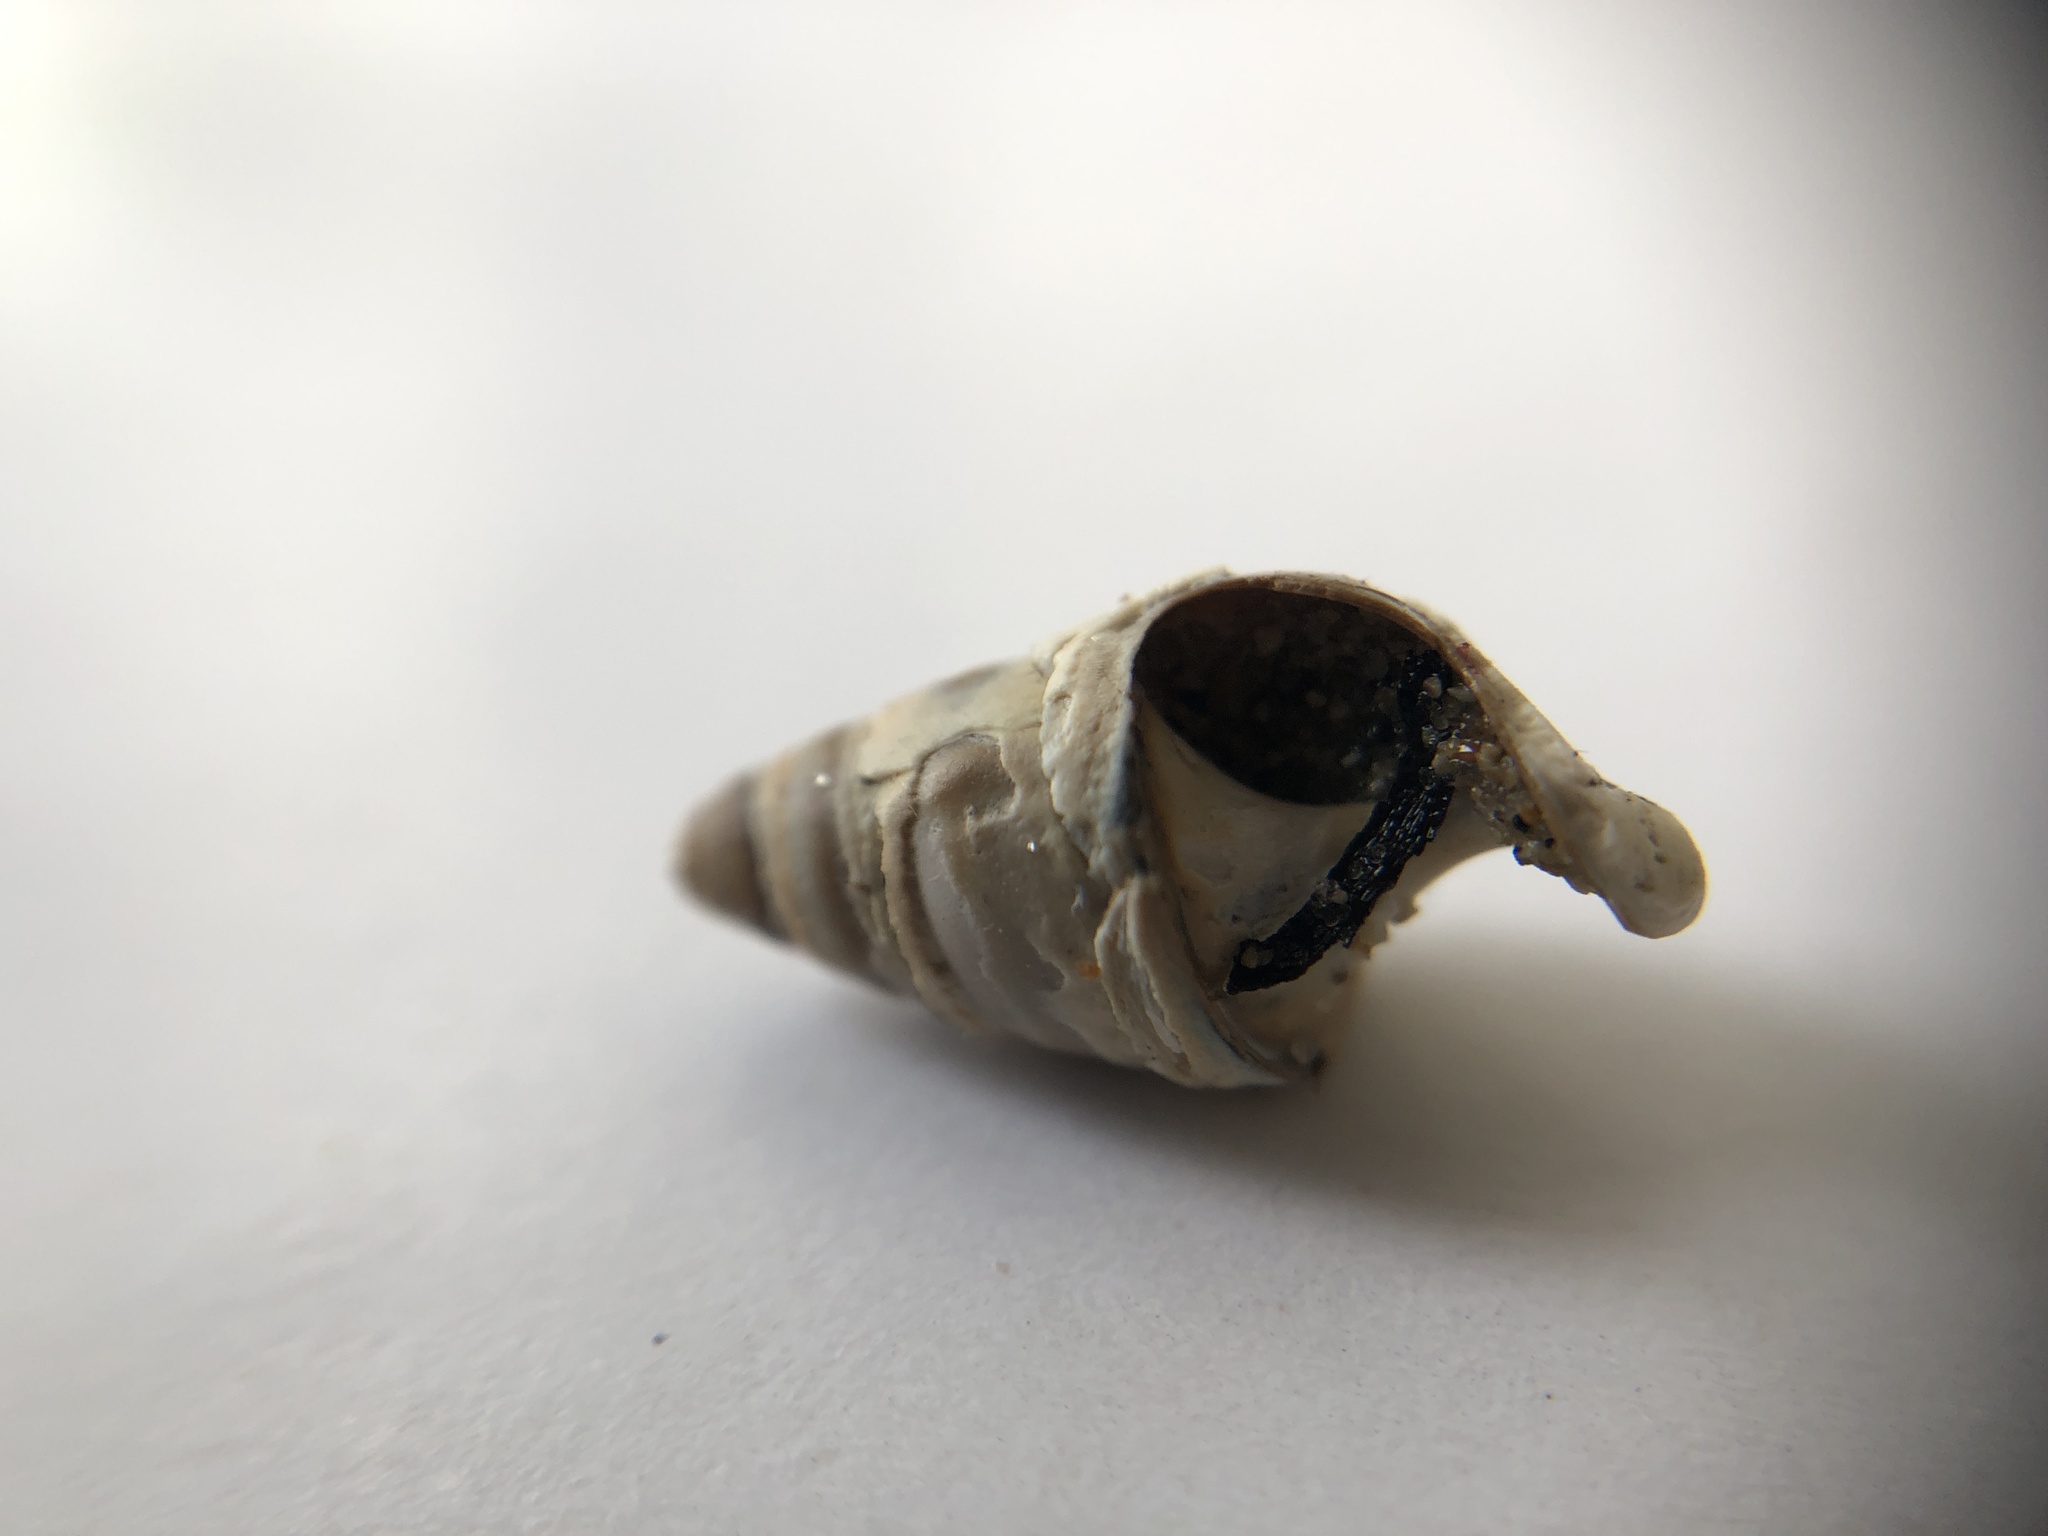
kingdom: Animalia
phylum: Mollusca
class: Gastropoda
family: Pleuroceridae
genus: Elimia
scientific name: Elimia livescens
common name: Liver elimia
